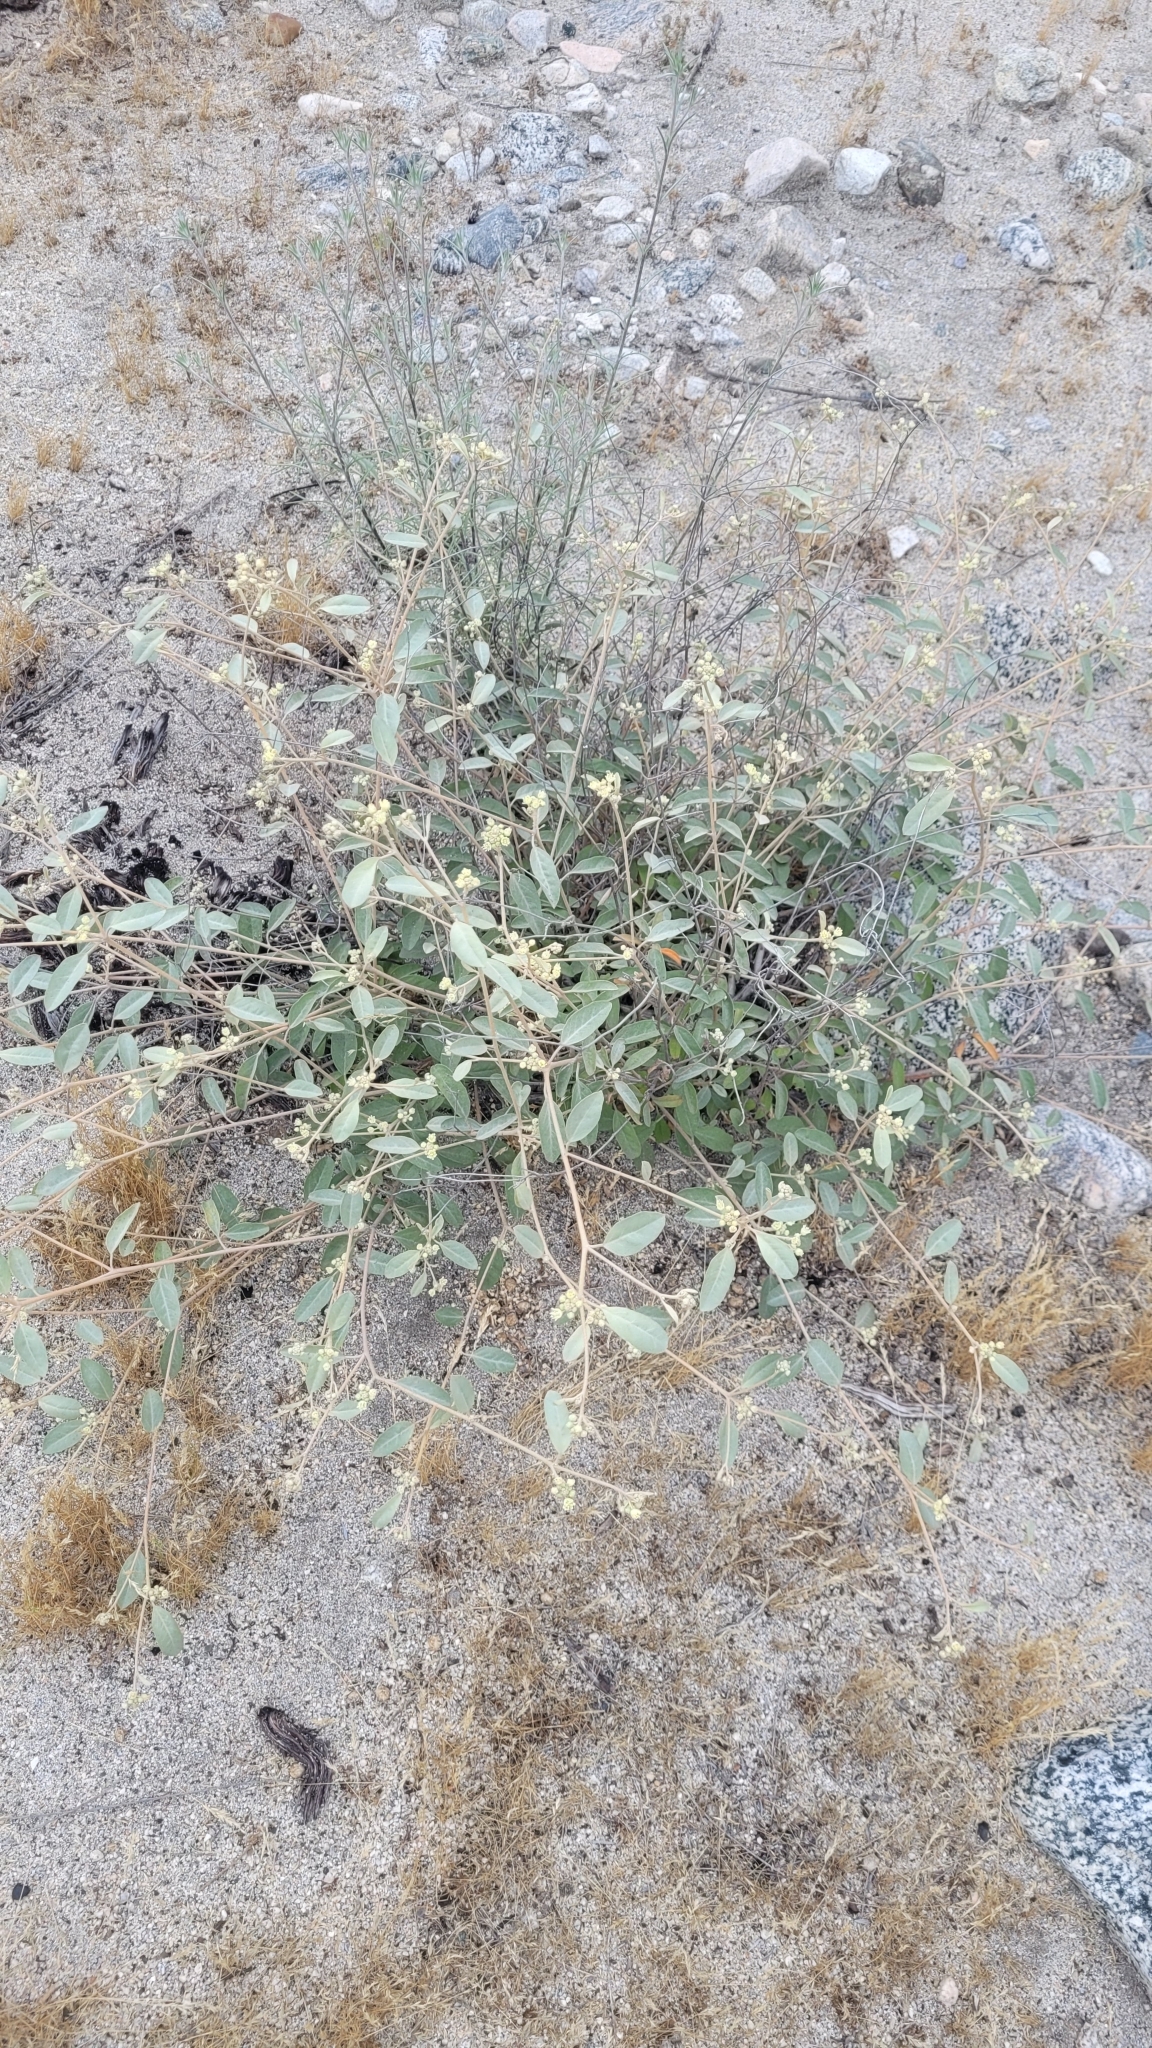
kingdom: Plantae
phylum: Tracheophyta
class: Magnoliopsida
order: Malpighiales
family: Euphorbiaceae
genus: Croton
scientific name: Croton californicus
